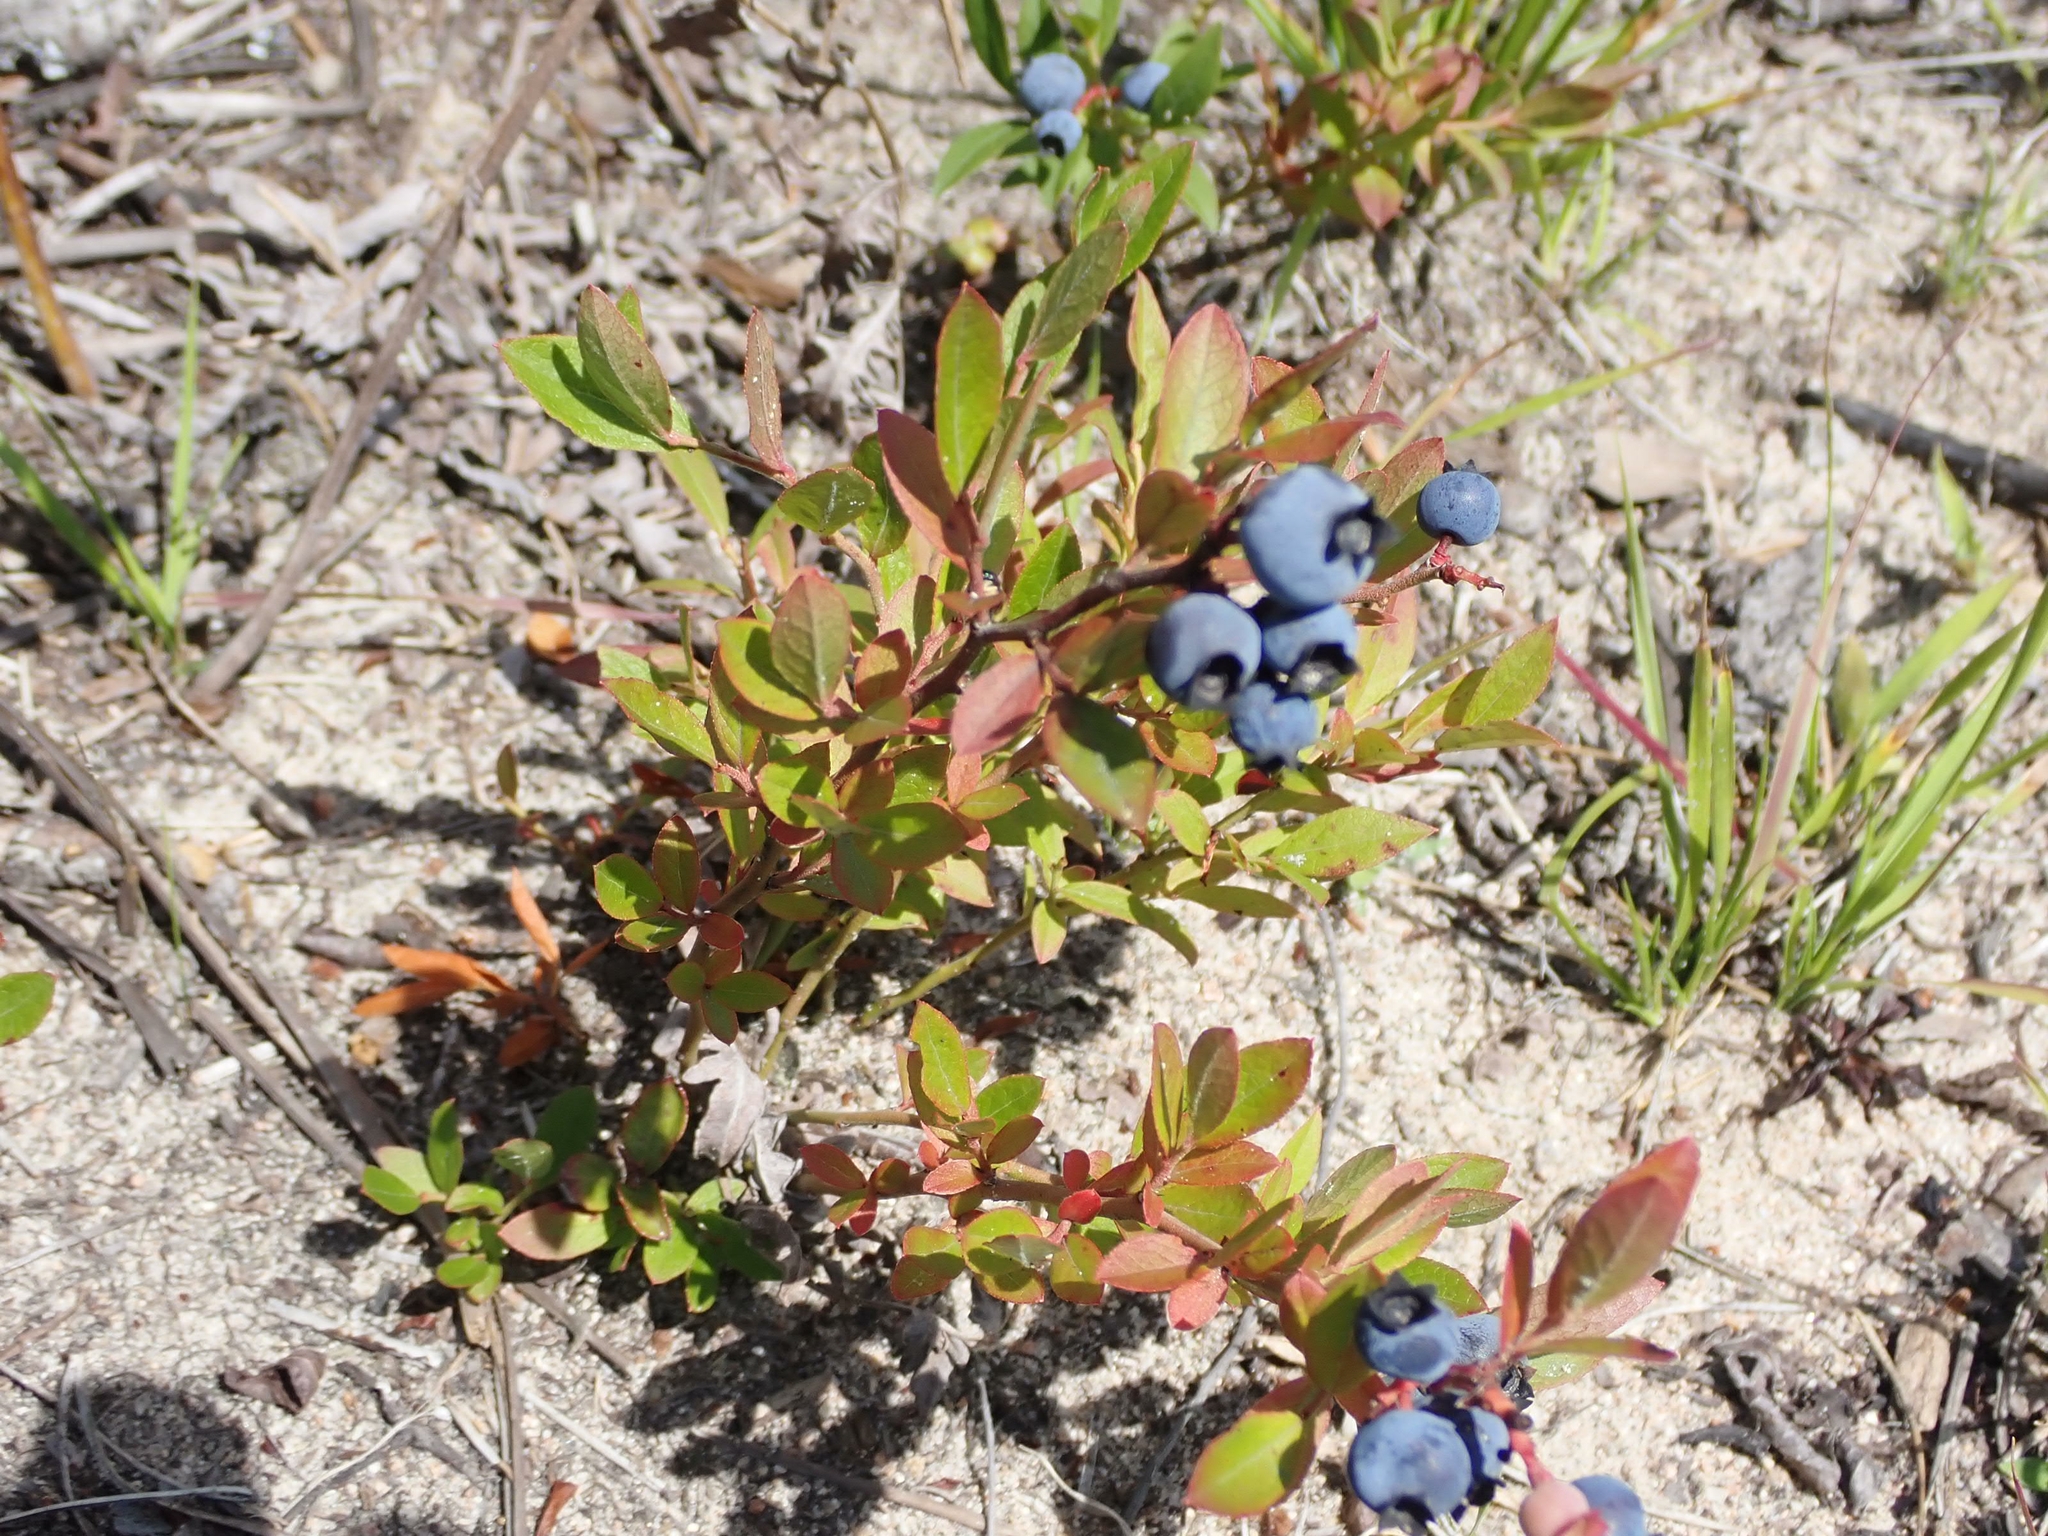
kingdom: Plantae
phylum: Tracheophyta
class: Magnoliopsida
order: Ericales
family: Ericaceae
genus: Vaccinium
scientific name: Vaccinium angustifolium
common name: Early lowbush blueberry
